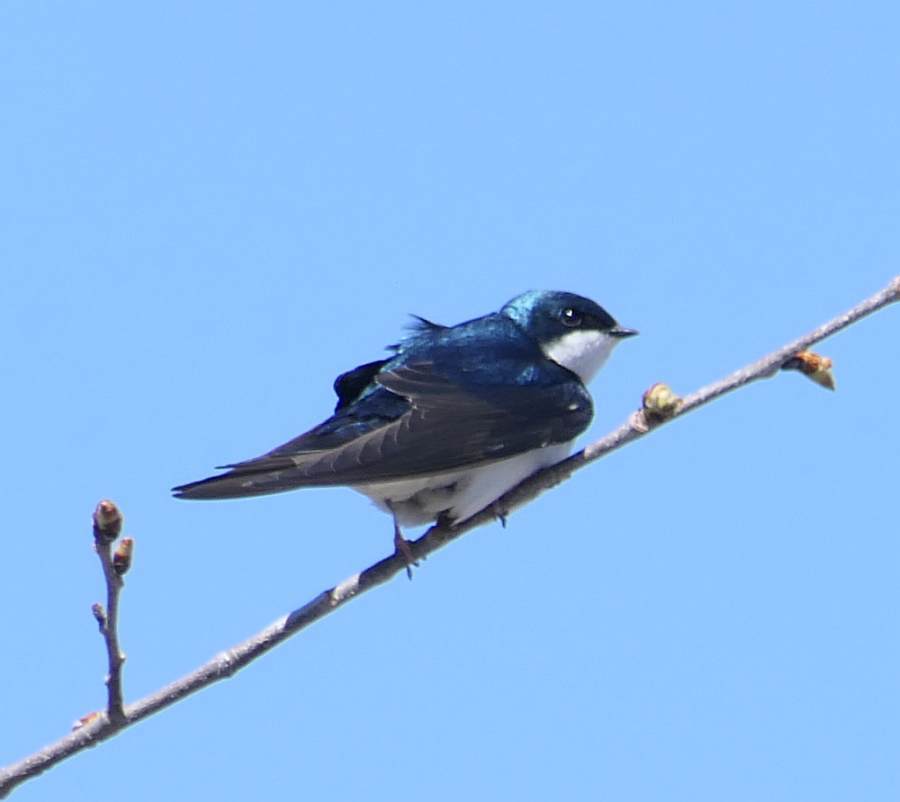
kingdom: Animalia
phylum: Chordata
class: Aves
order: Passeriformes
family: Hirundinidae
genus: Tachycineta
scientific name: Tachycineta bicolor
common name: Tree swallow
